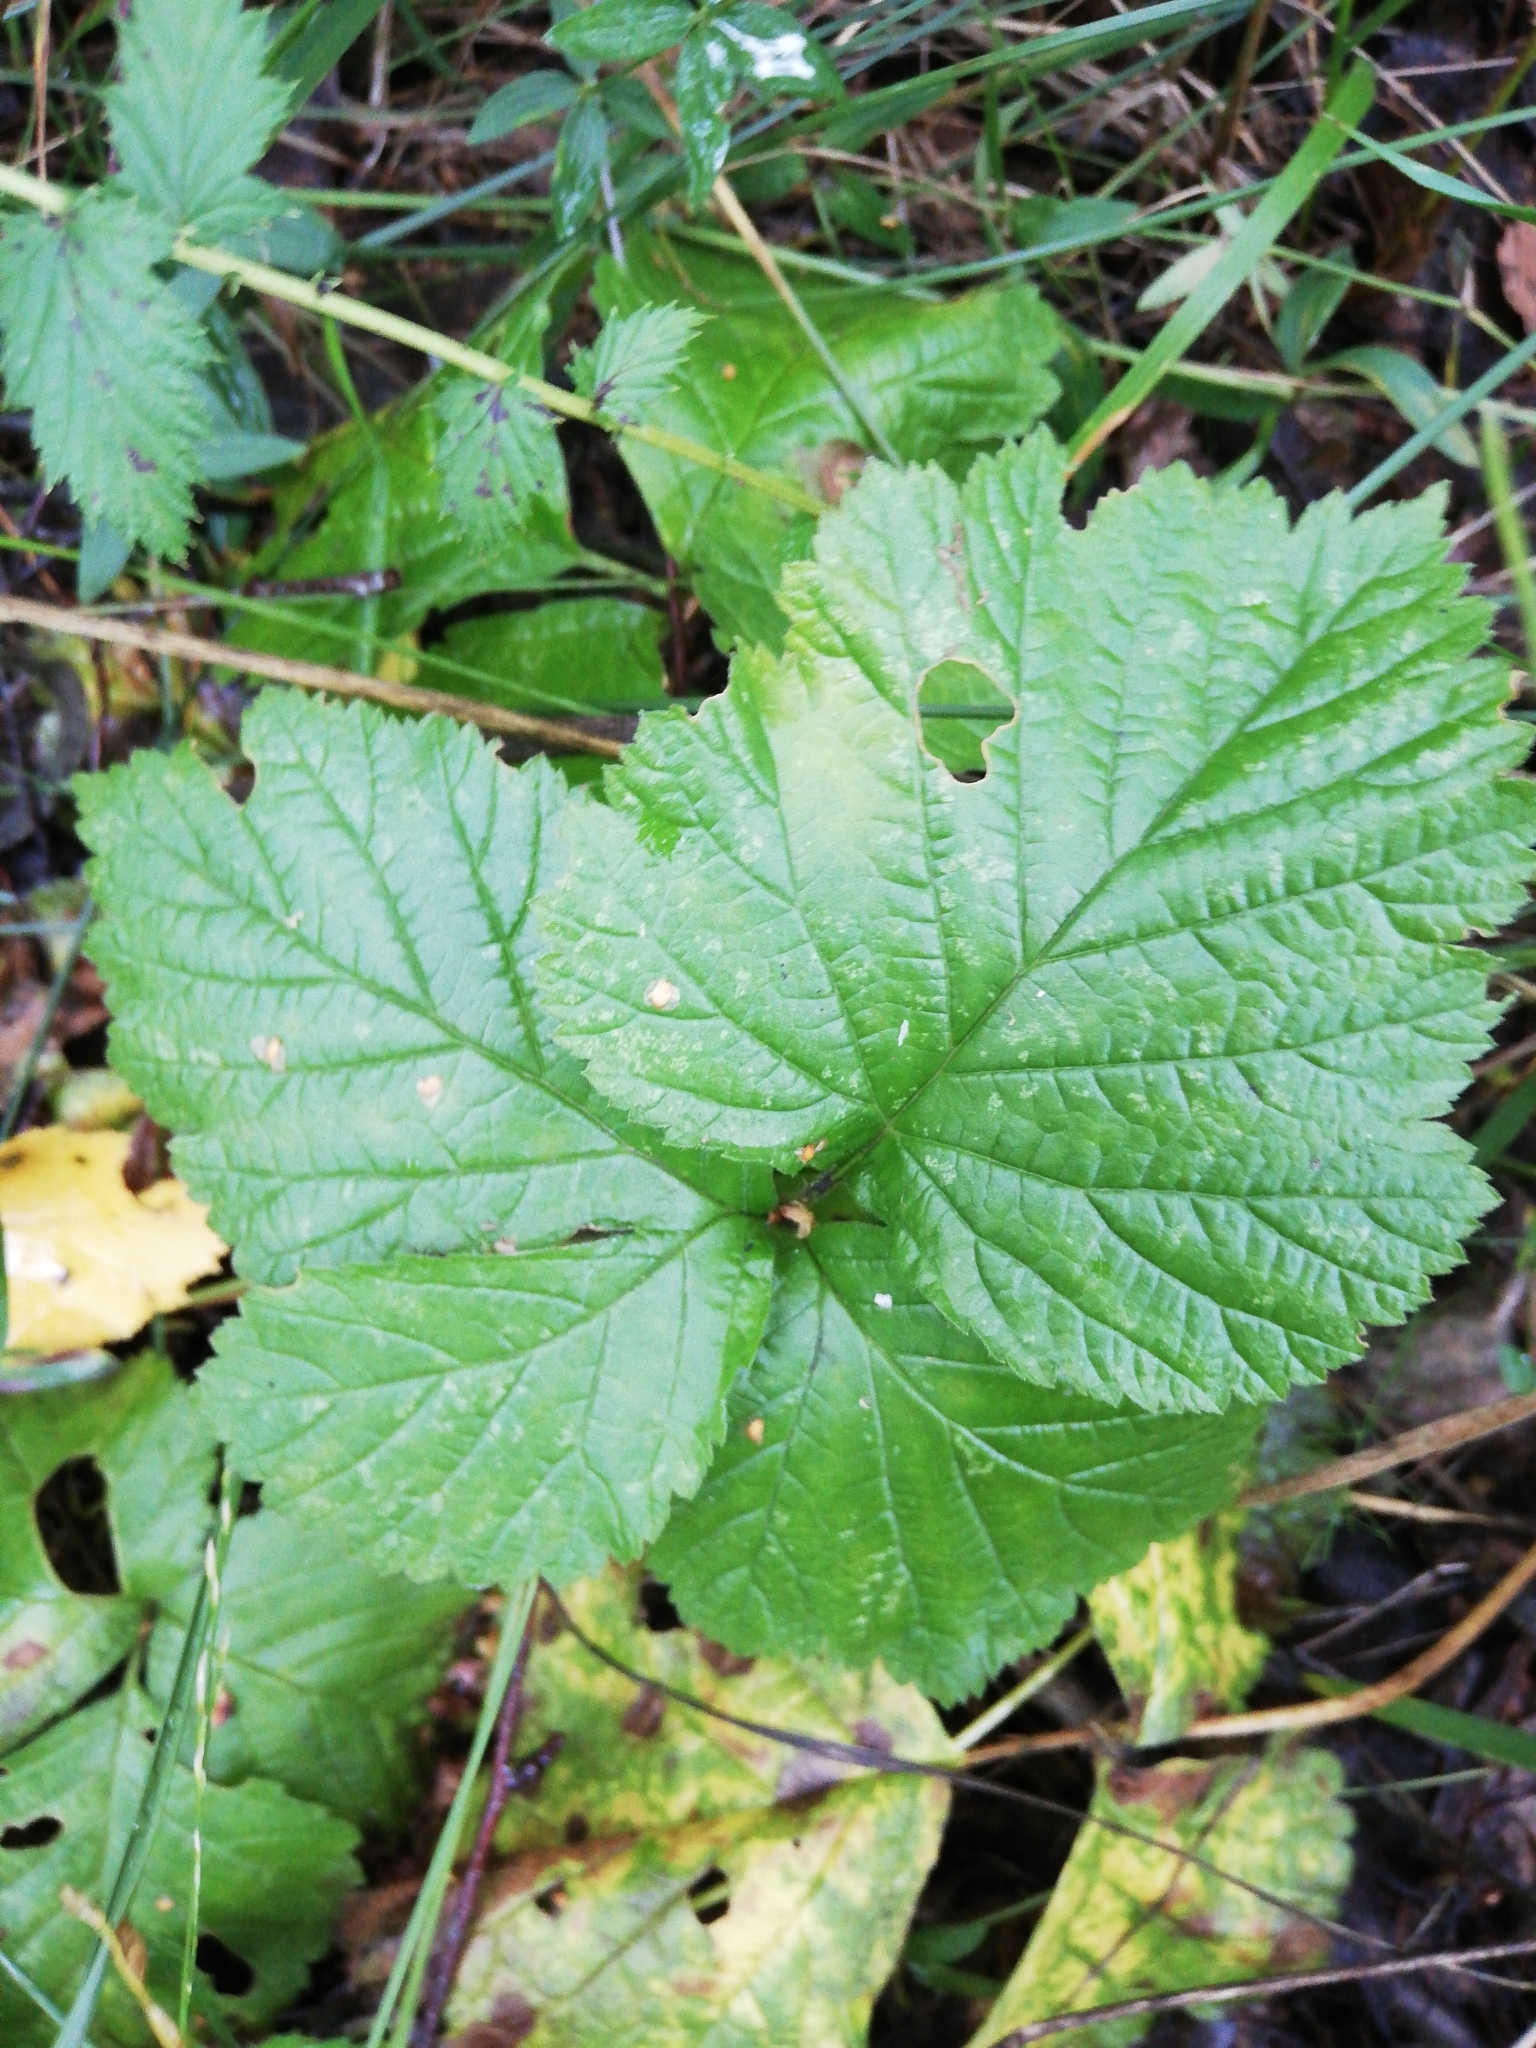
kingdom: Plantae
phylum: Tracheophyta
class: Magnoliopsida
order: Rosales
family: Rosaceae
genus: Rubus
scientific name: Rubus saxatilis
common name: Stone bramble
